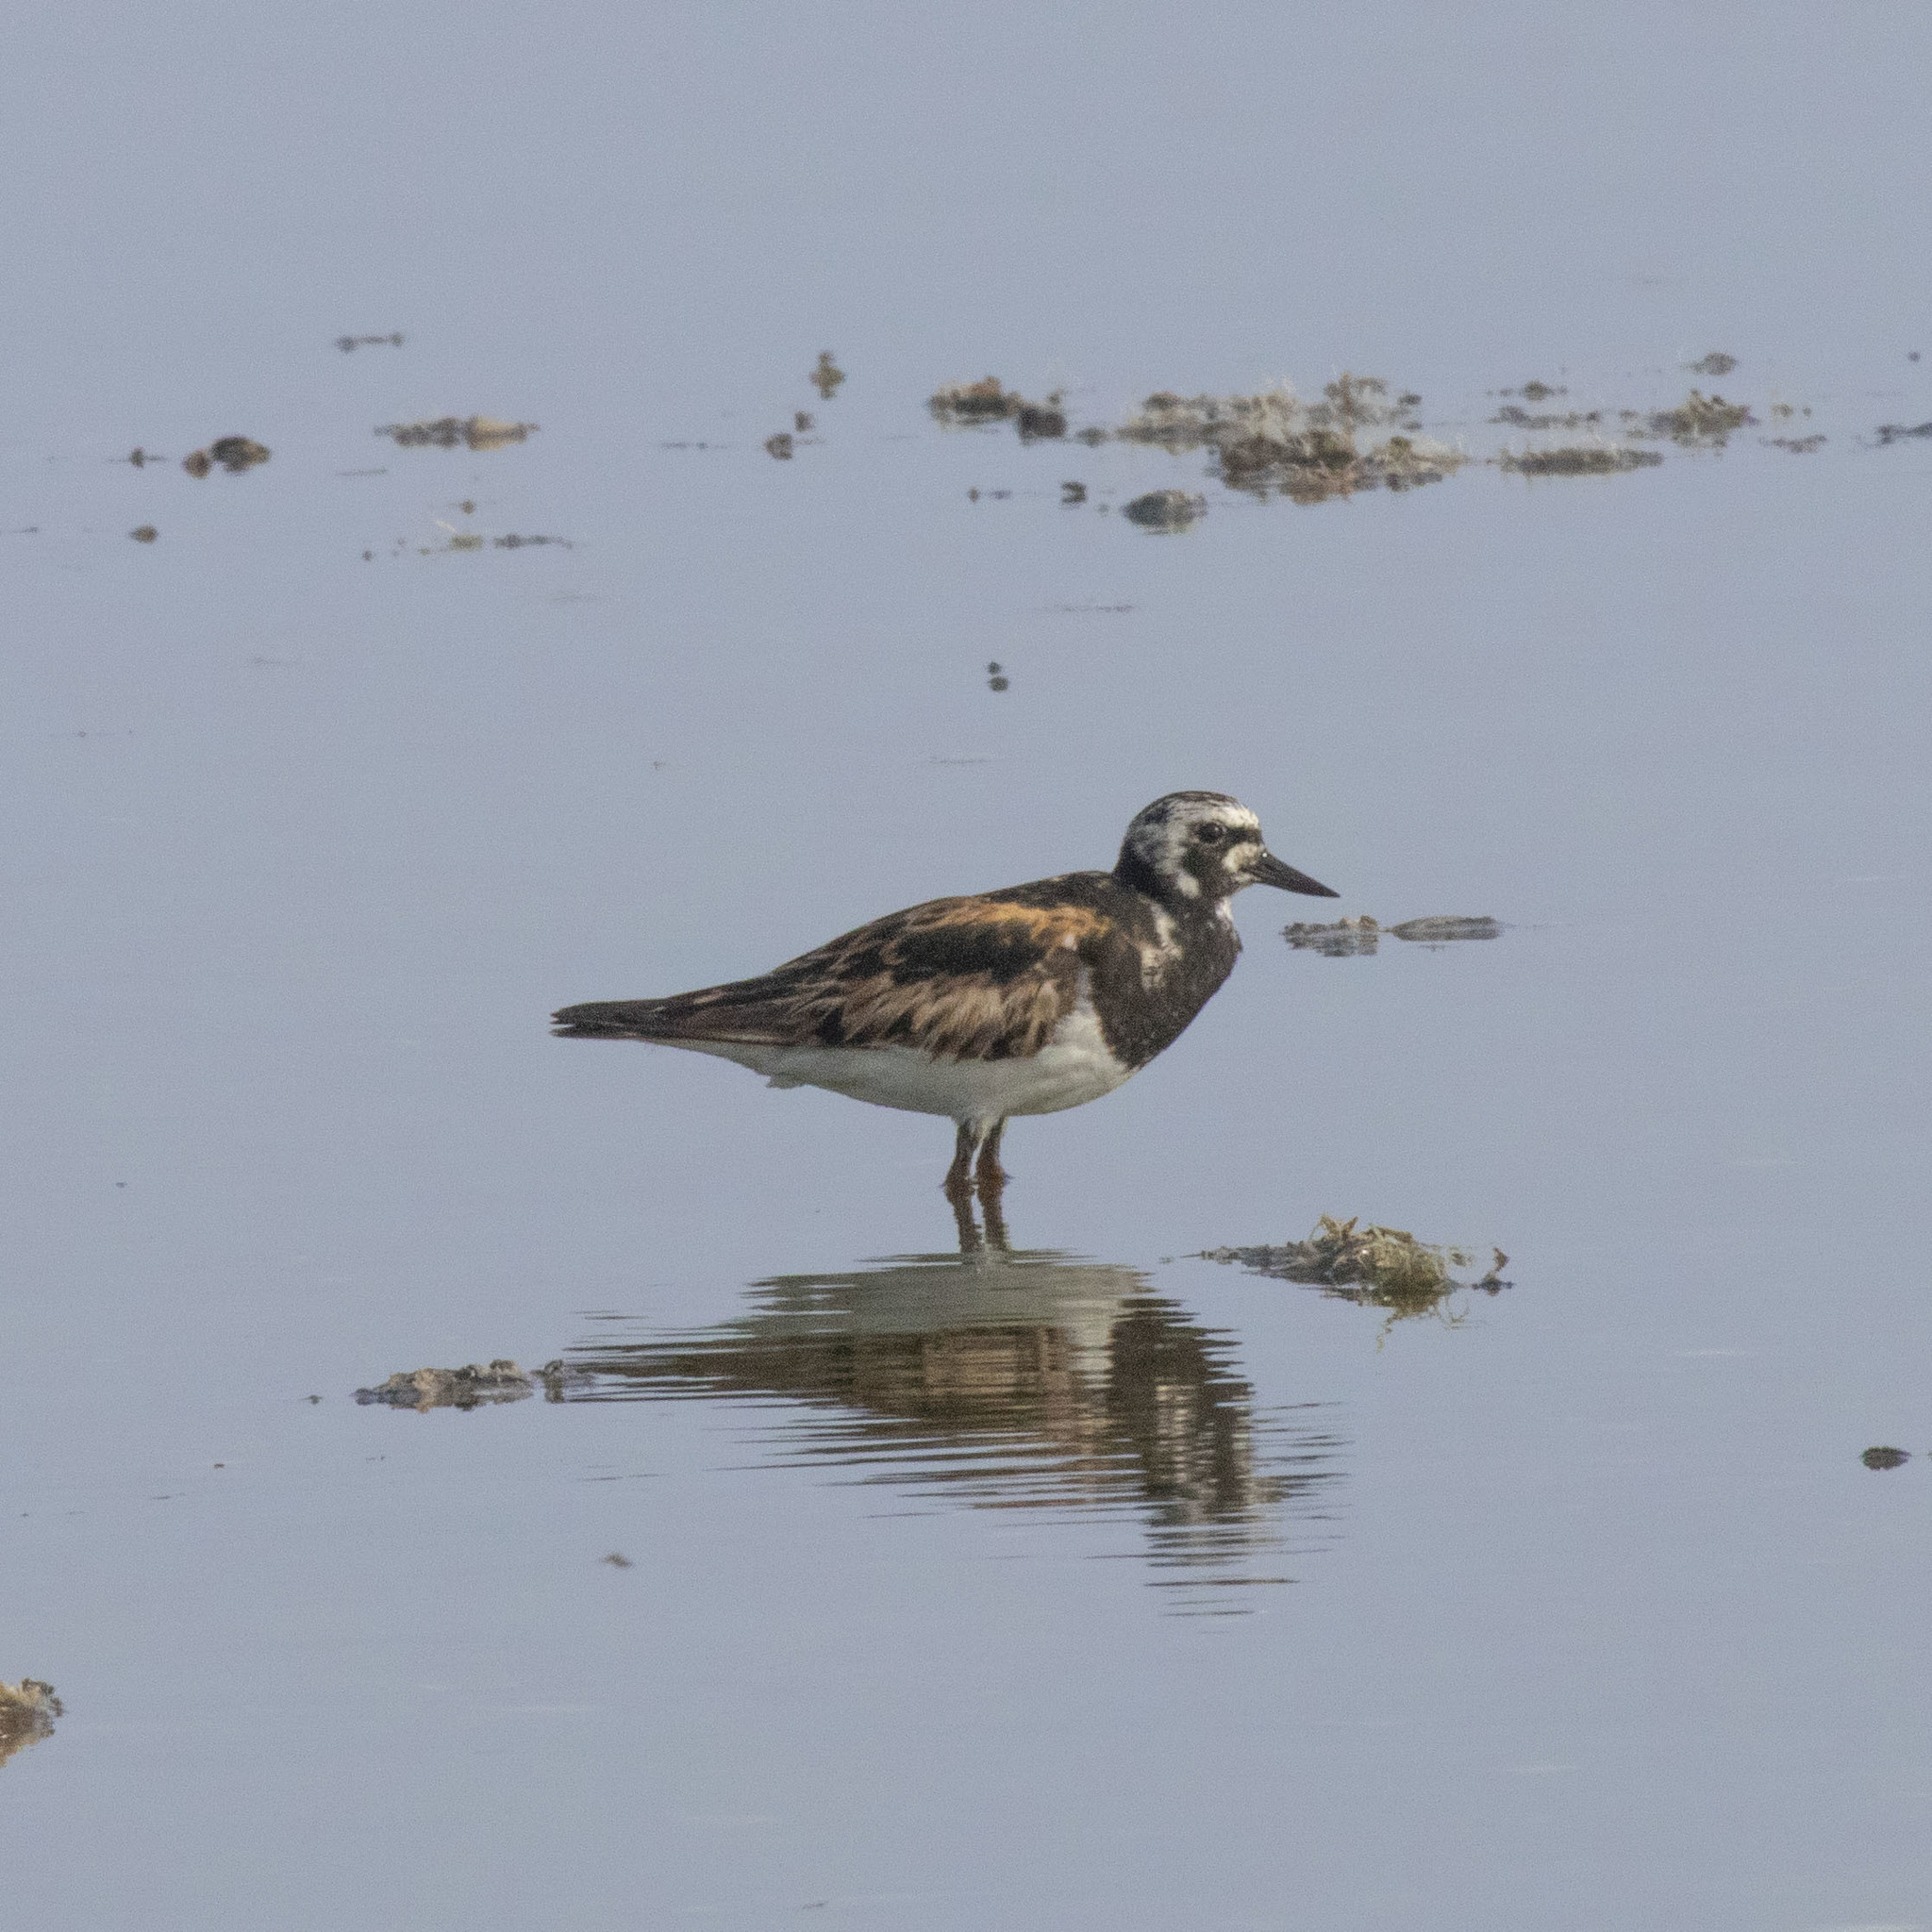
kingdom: Animalia
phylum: Chordata
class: Aves
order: Charadriiformes
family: Scolopacidae
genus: Arenaria
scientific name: Arenaria interpres
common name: Ruddy turnstone
